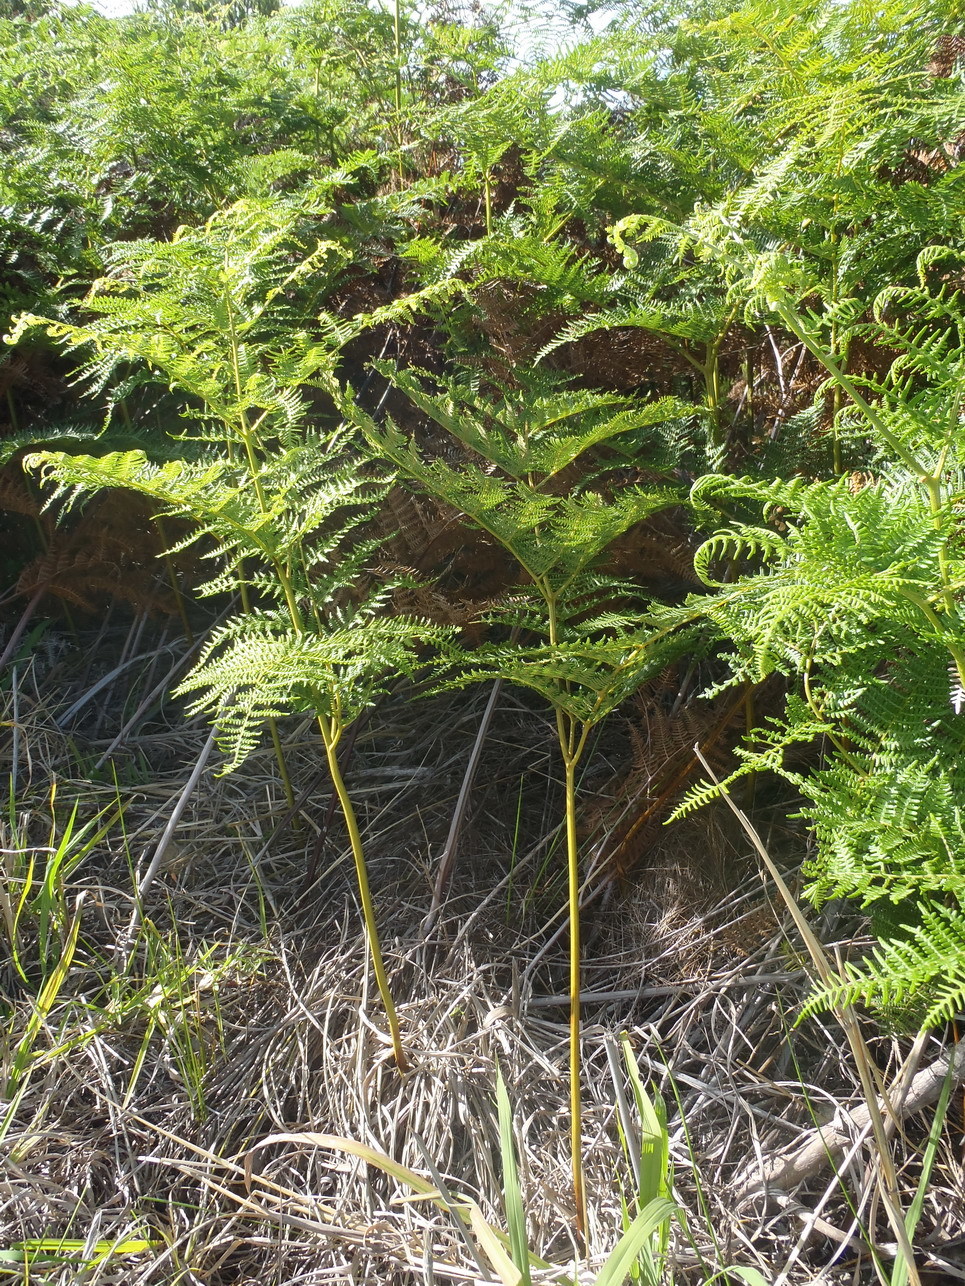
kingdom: Plantae
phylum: Tracheophyta
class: Polypodiopsida
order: Polypodiales
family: Dennstaedtiaceae
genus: Pteridium
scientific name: Pteridium aquilinum
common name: Bracken
